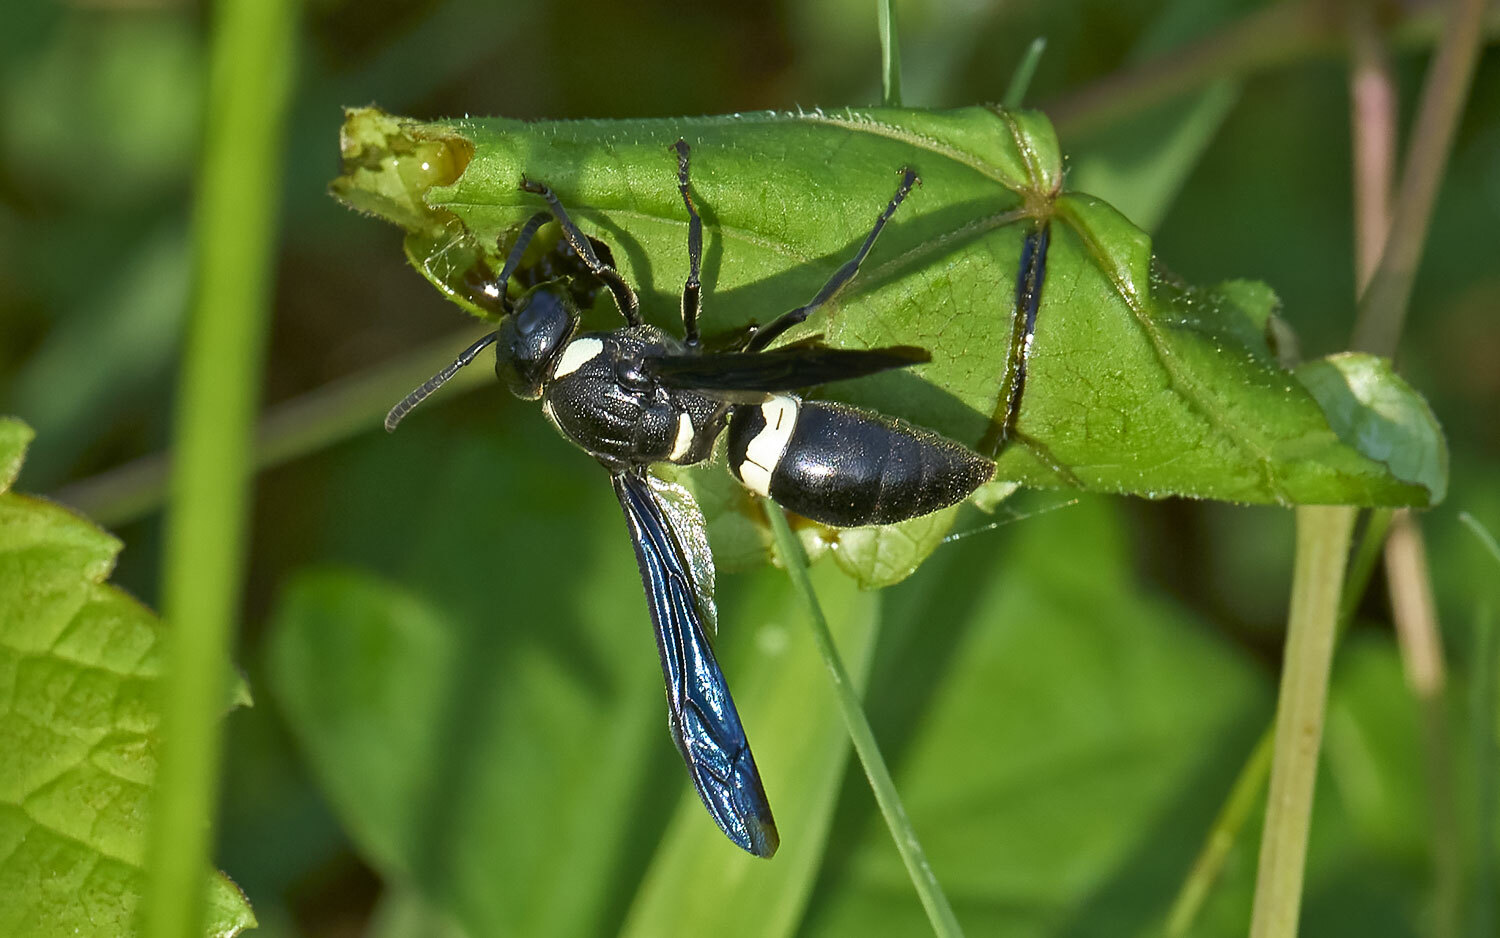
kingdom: Animalia
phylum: Arthropoda
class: Insecta
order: Hymenoptera
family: Eumenidae
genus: Monobia
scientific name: Monobia quadridens
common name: Four-toothed mason wasp
